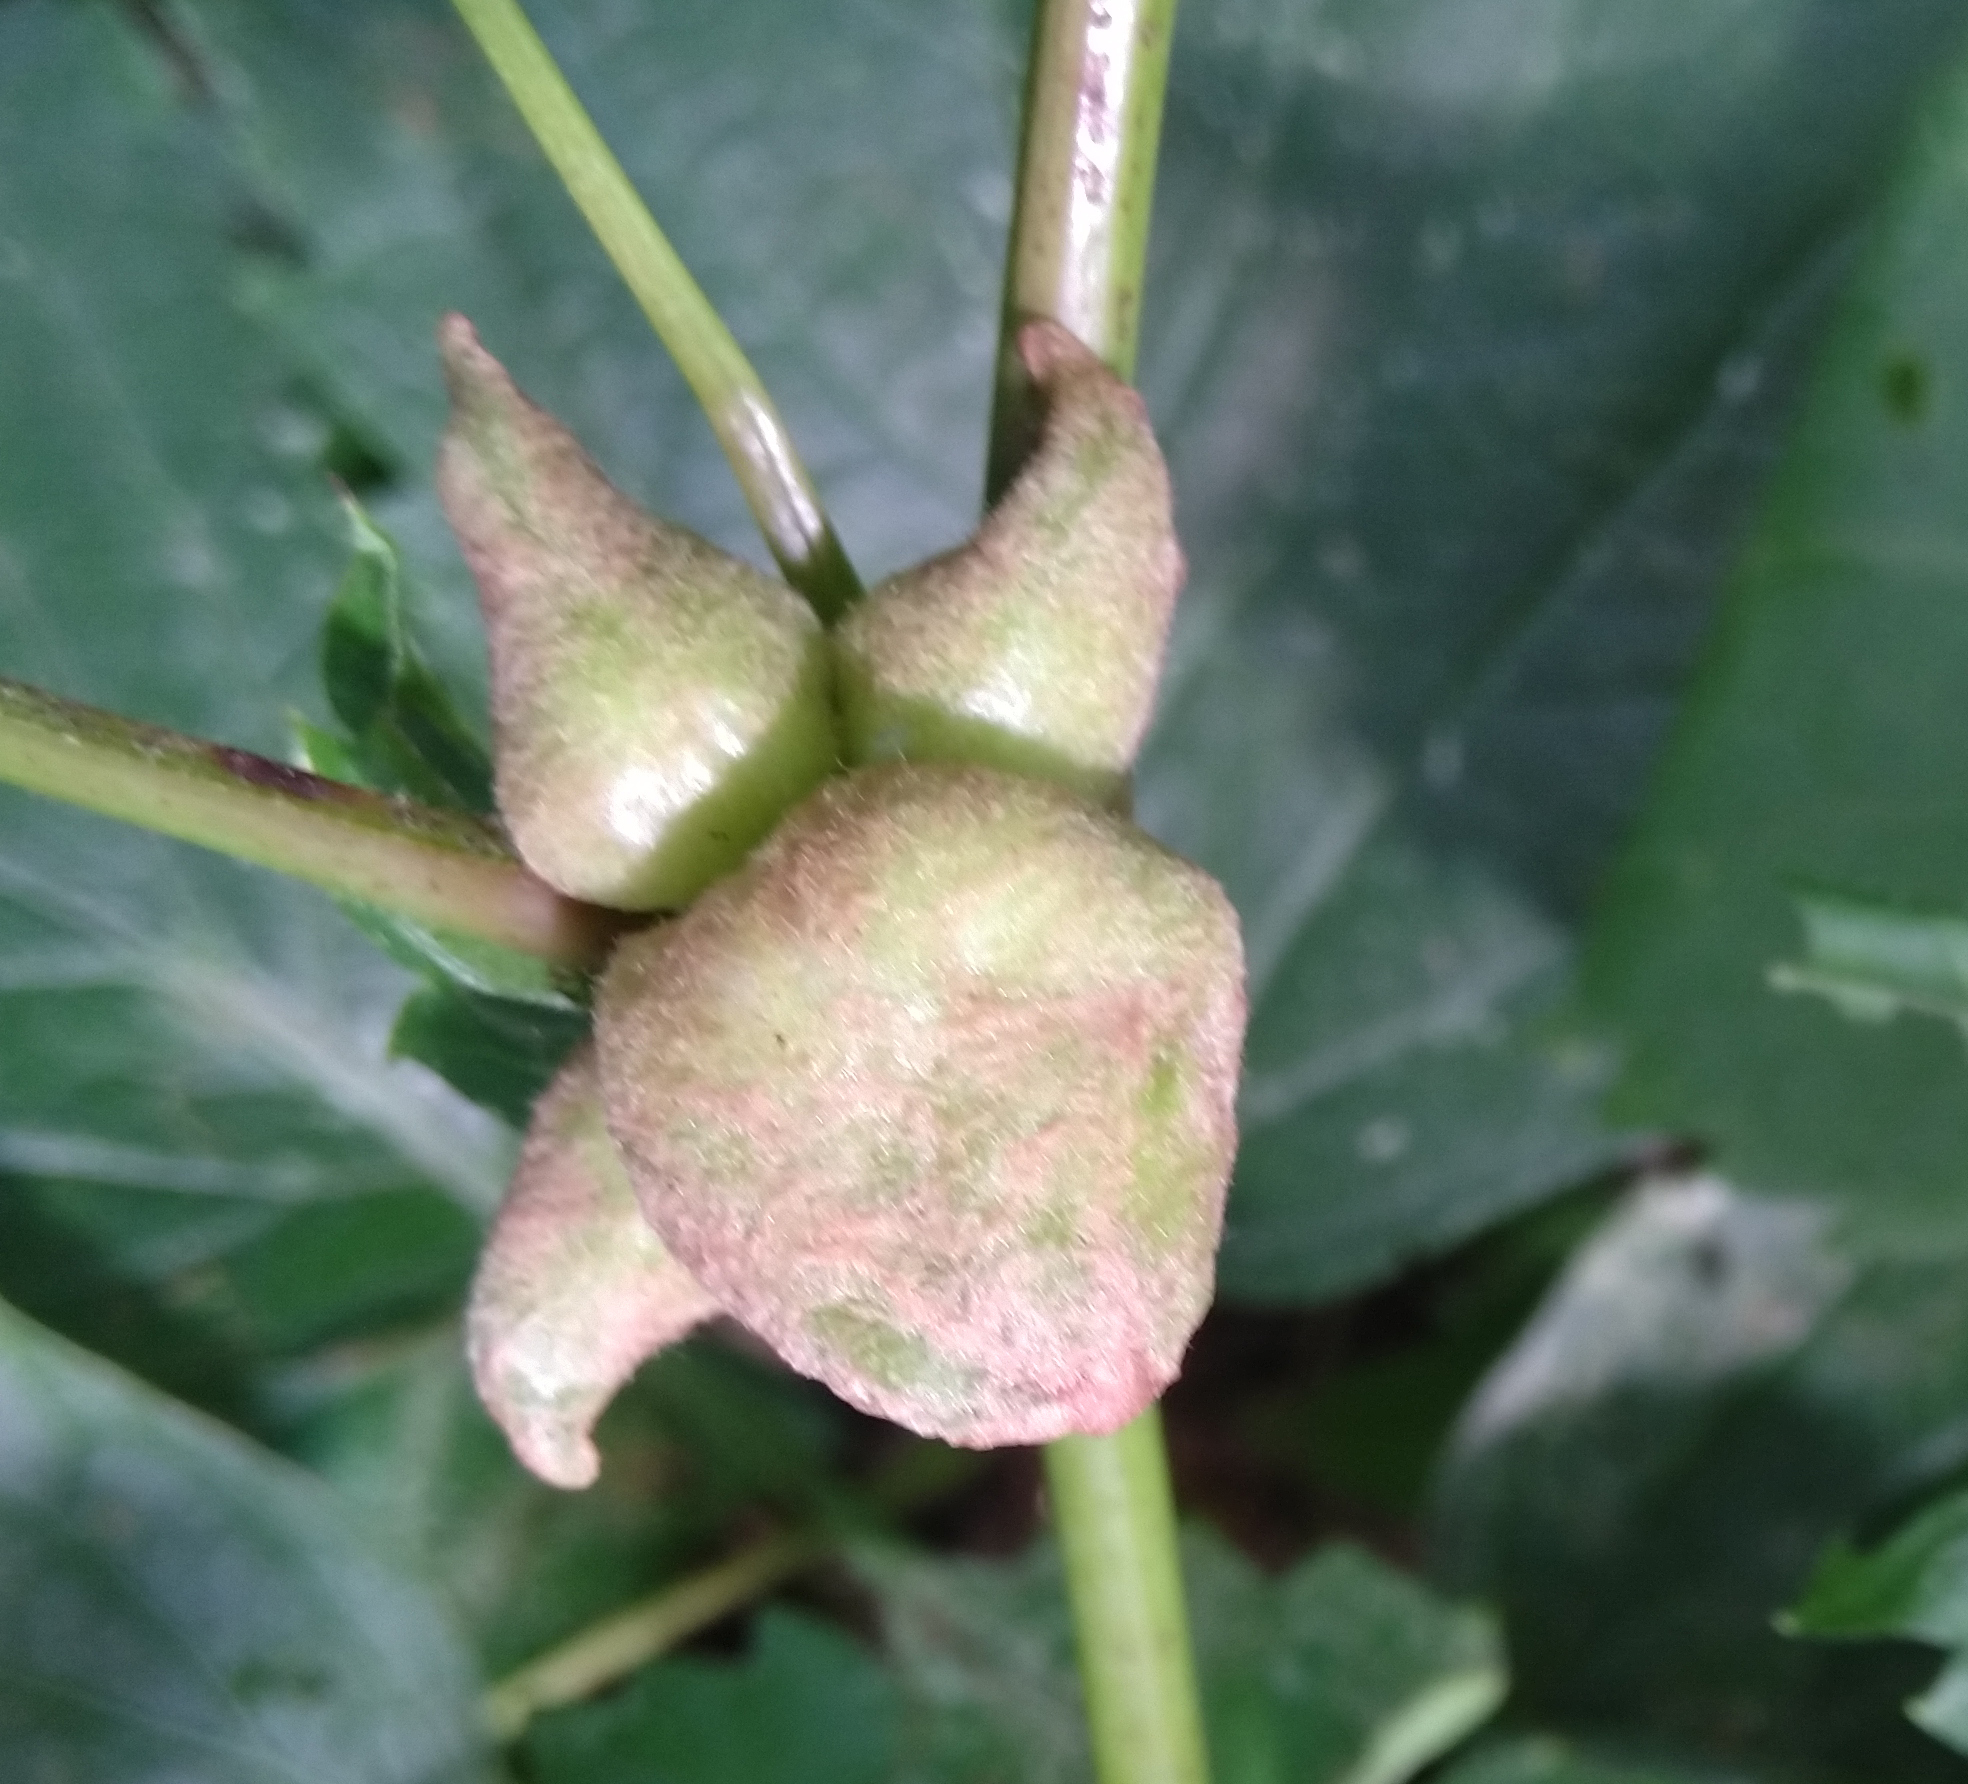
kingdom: Animalia
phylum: Arthropoda
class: Insecta
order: Diptera
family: Cecidomyiidae
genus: Ampelomyia
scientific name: Ampelomyia vitiscoryloides
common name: Grape filbert gall
